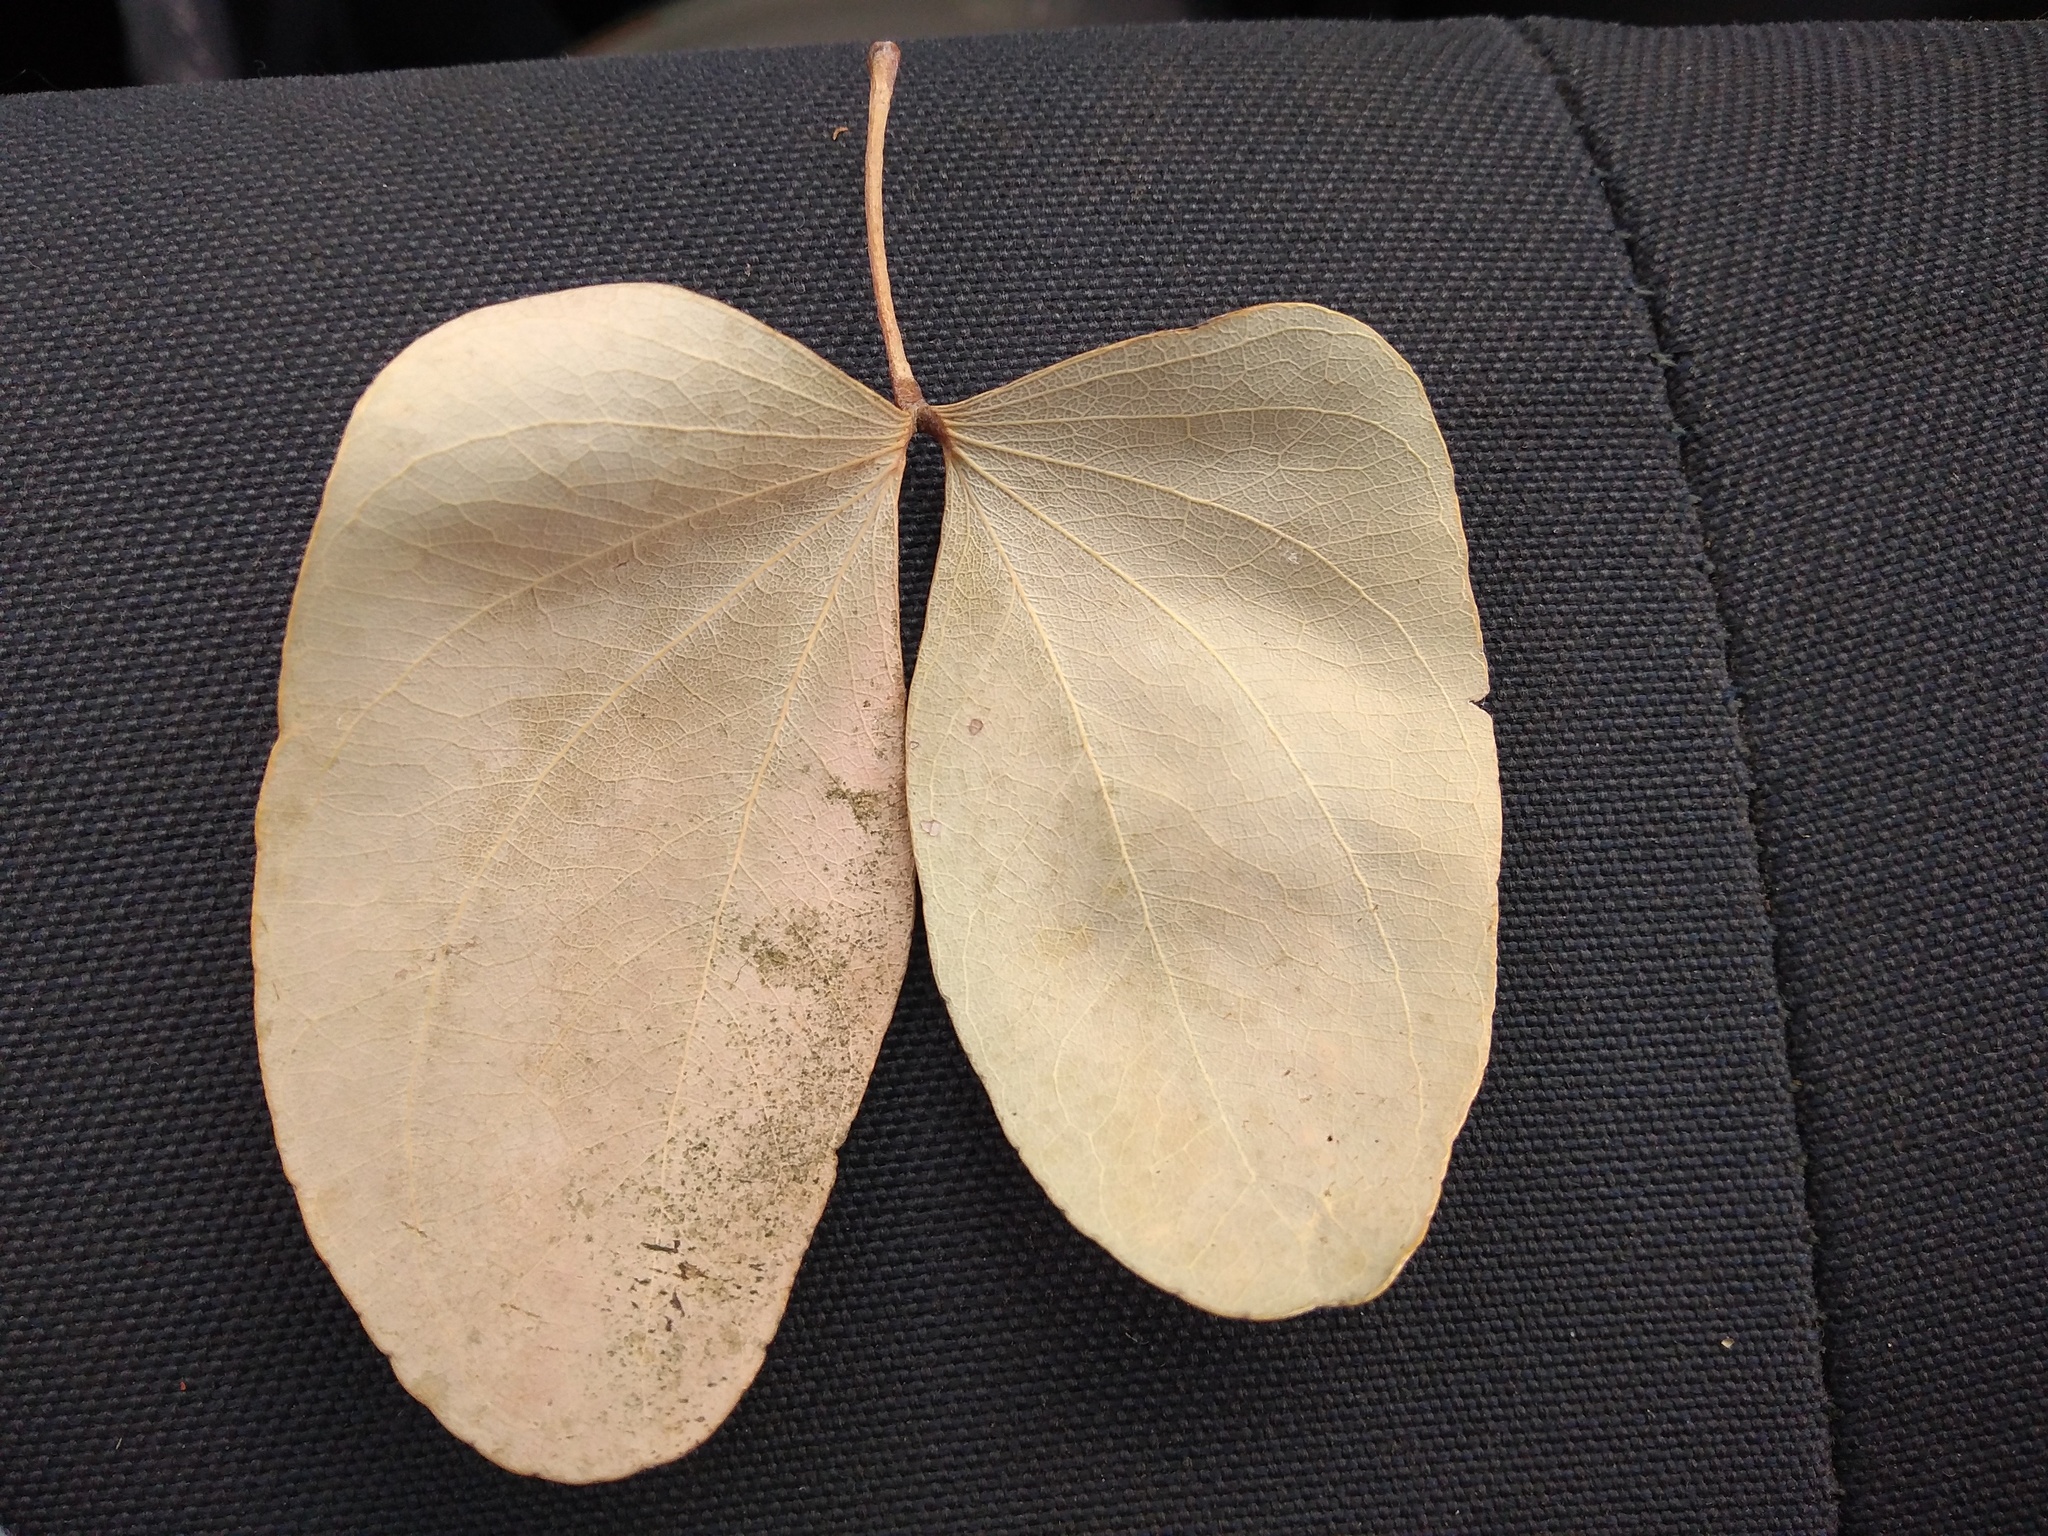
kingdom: Plantae
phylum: Tracheophyta
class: Magnoliopsida
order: Fabales
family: Fabaceae
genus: Hardwickia
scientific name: Hardwickia binata
